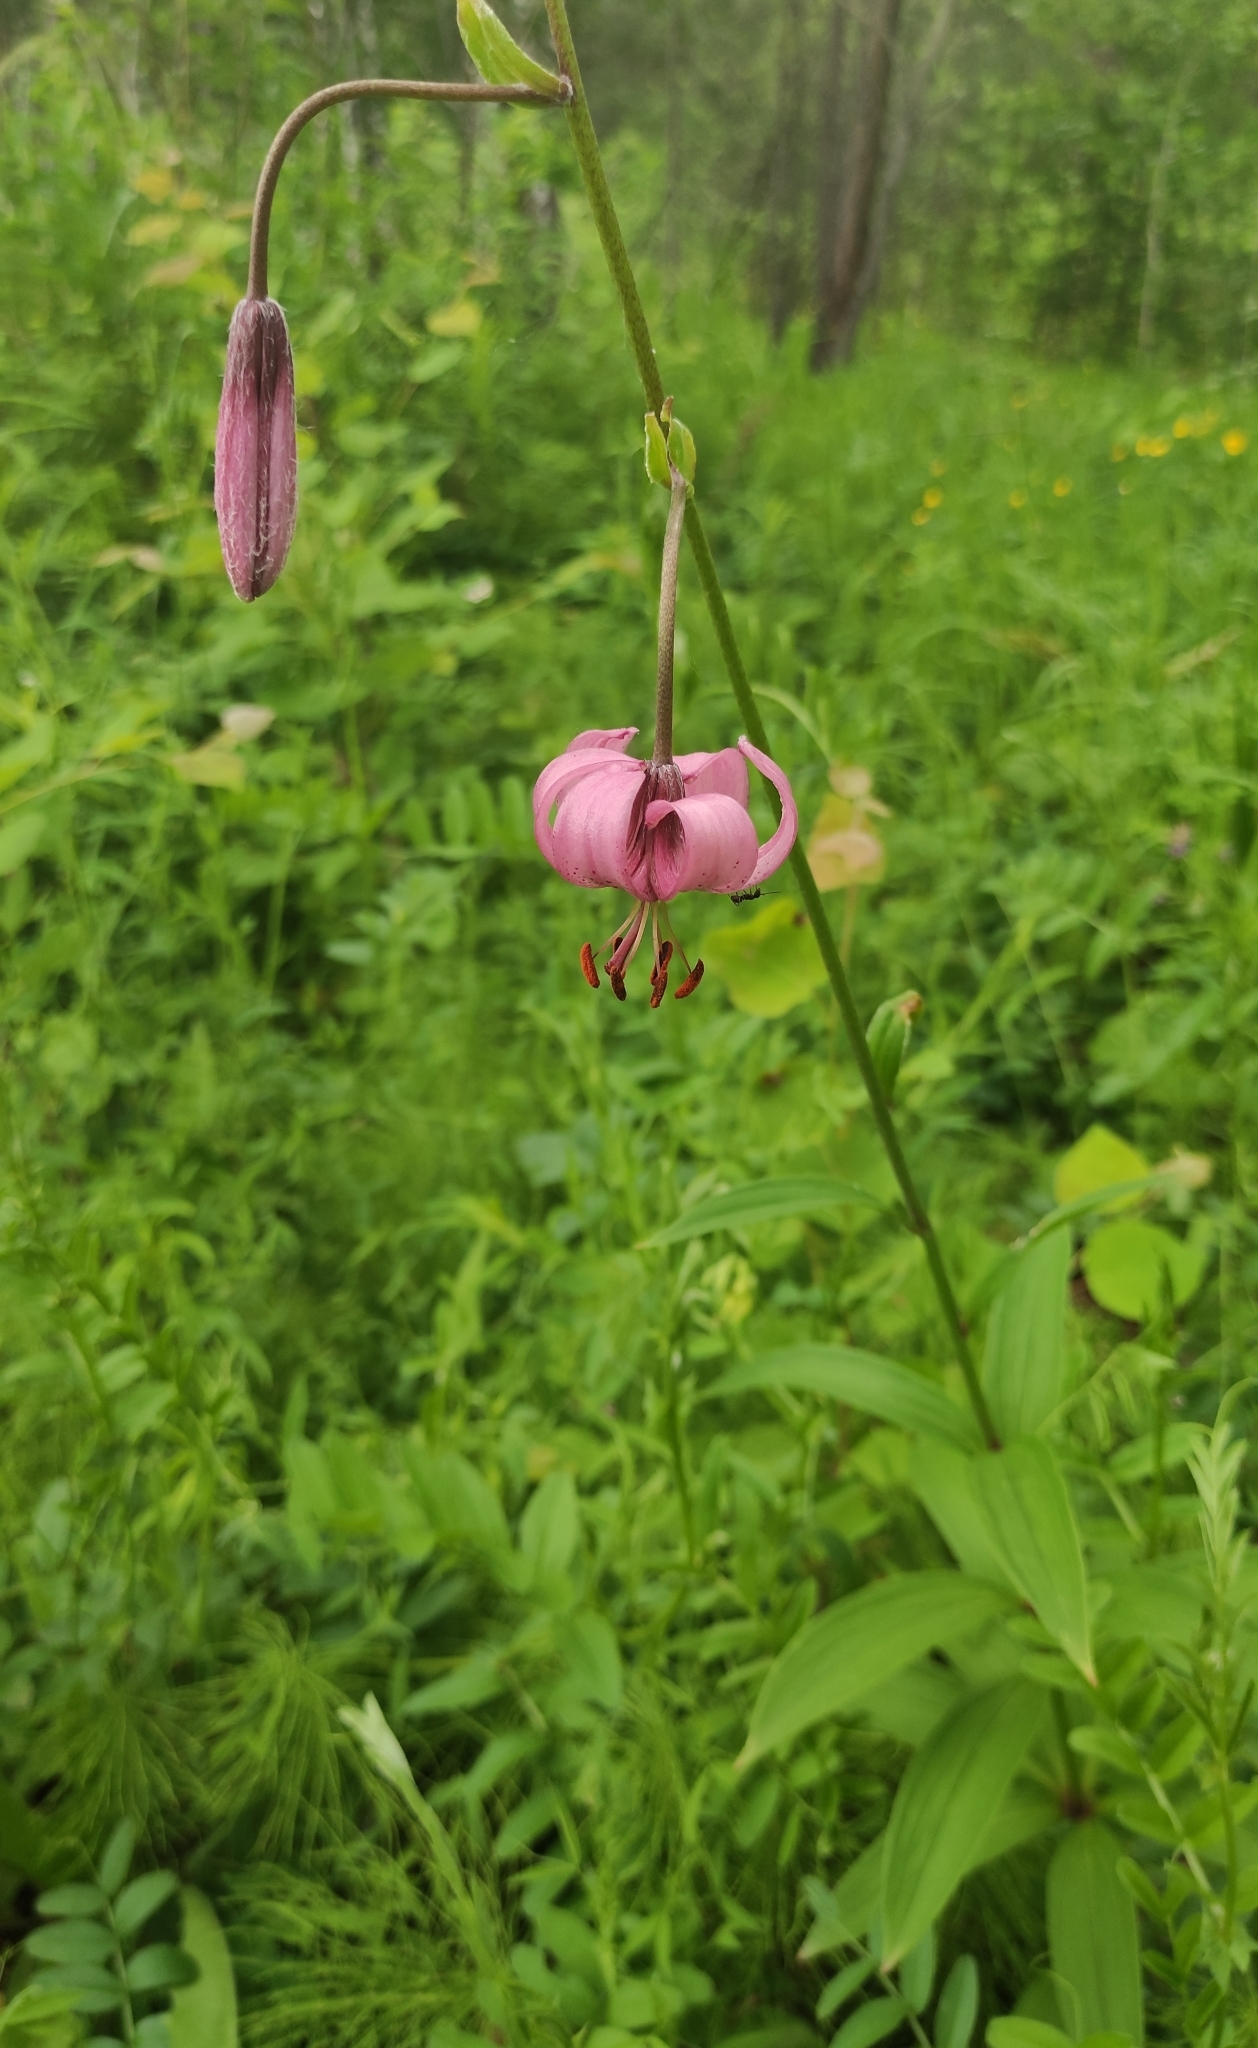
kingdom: Plantae
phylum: Tracheophyta
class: Liliopsida
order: Liliales
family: Liliaceae
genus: Lilium
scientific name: Lilium martagon
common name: Martagon lily
